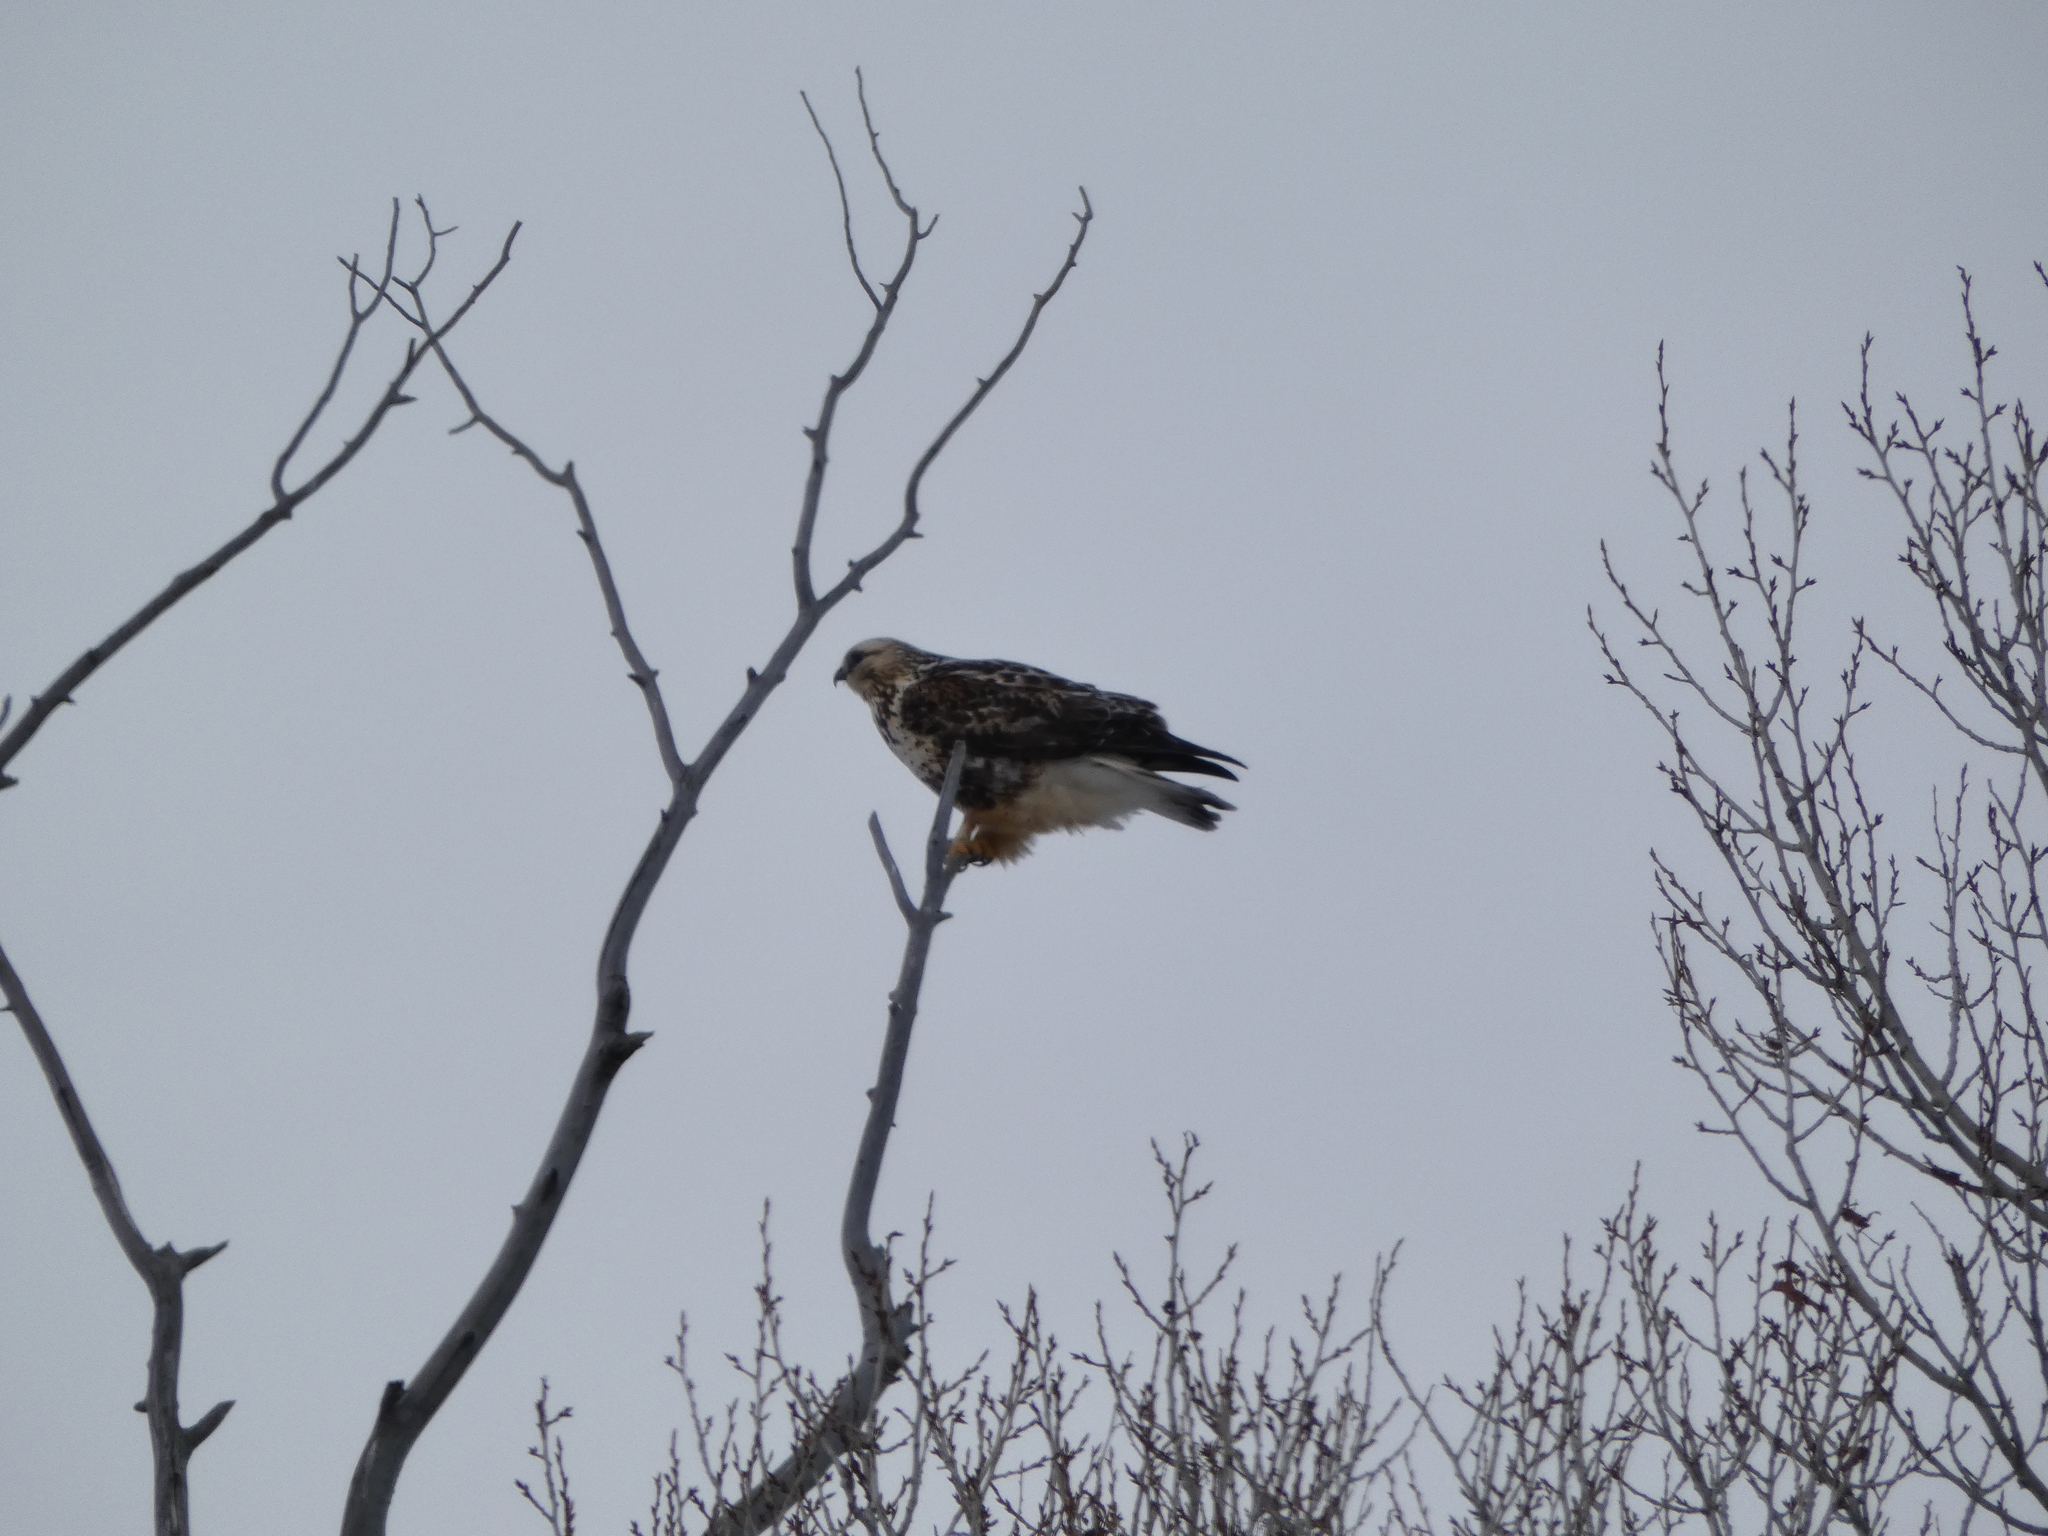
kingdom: Animalia
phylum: Chordata
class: Aves
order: Accipitriformes
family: Accipitridae
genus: Buteo
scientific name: Buteo lagopus
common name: Rough-legged buzzard
